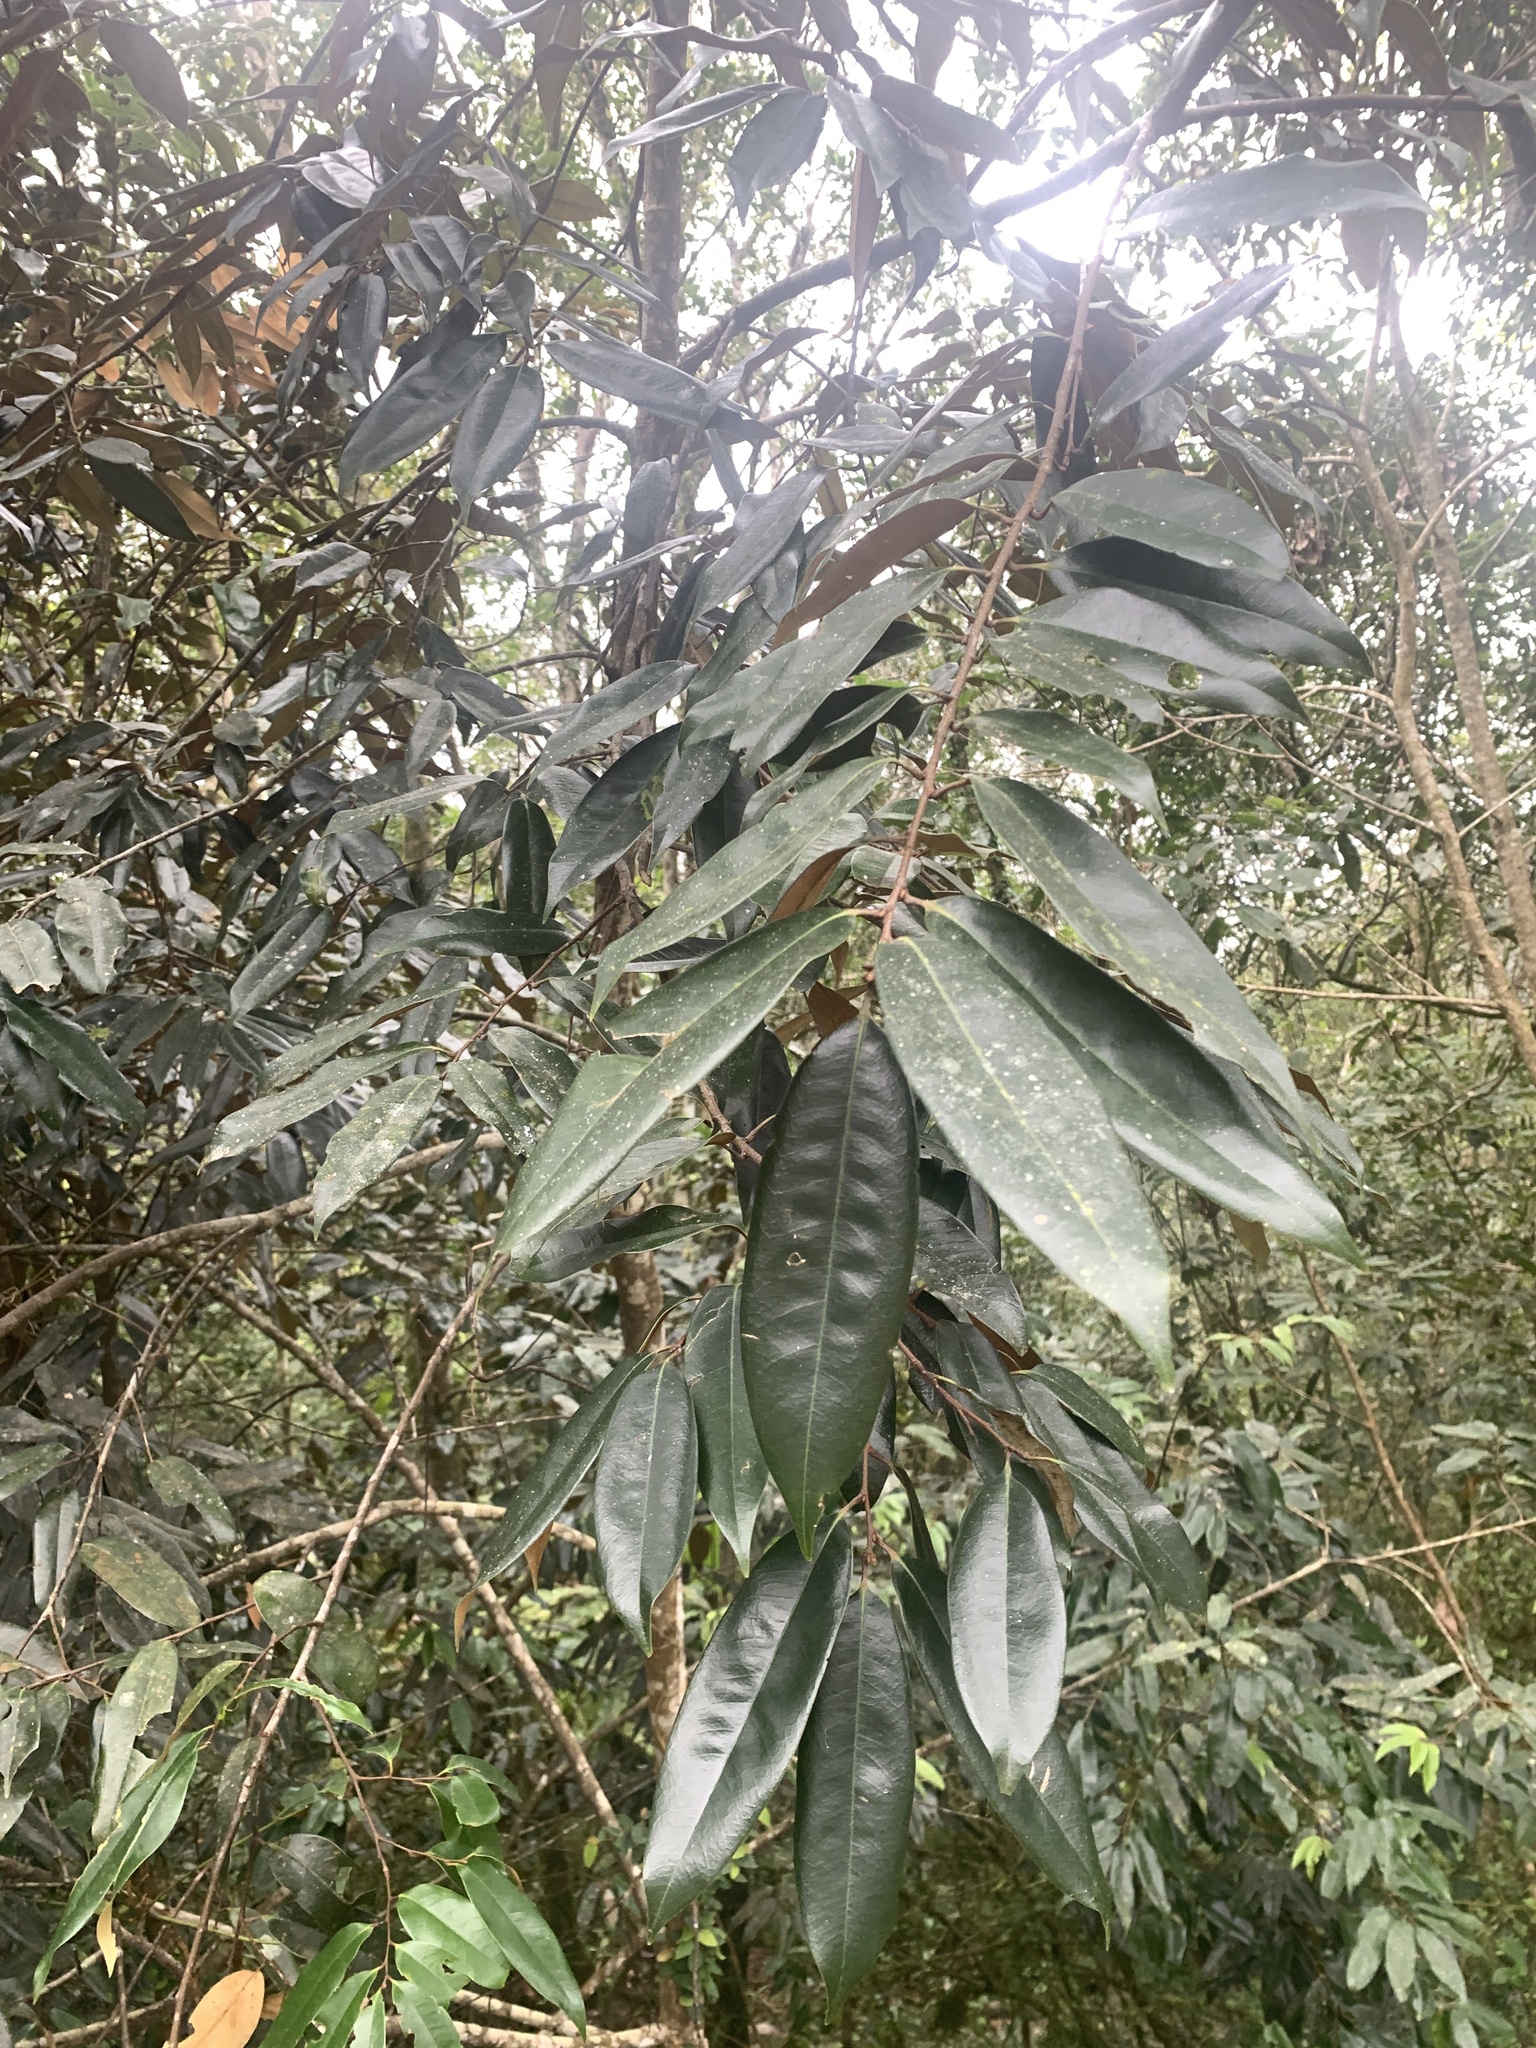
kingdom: Plantae
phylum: Tracheophyta
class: Magnoliopsida
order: Fagales
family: Fagaceae
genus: Castanopsis
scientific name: Castanopsis fargesii
